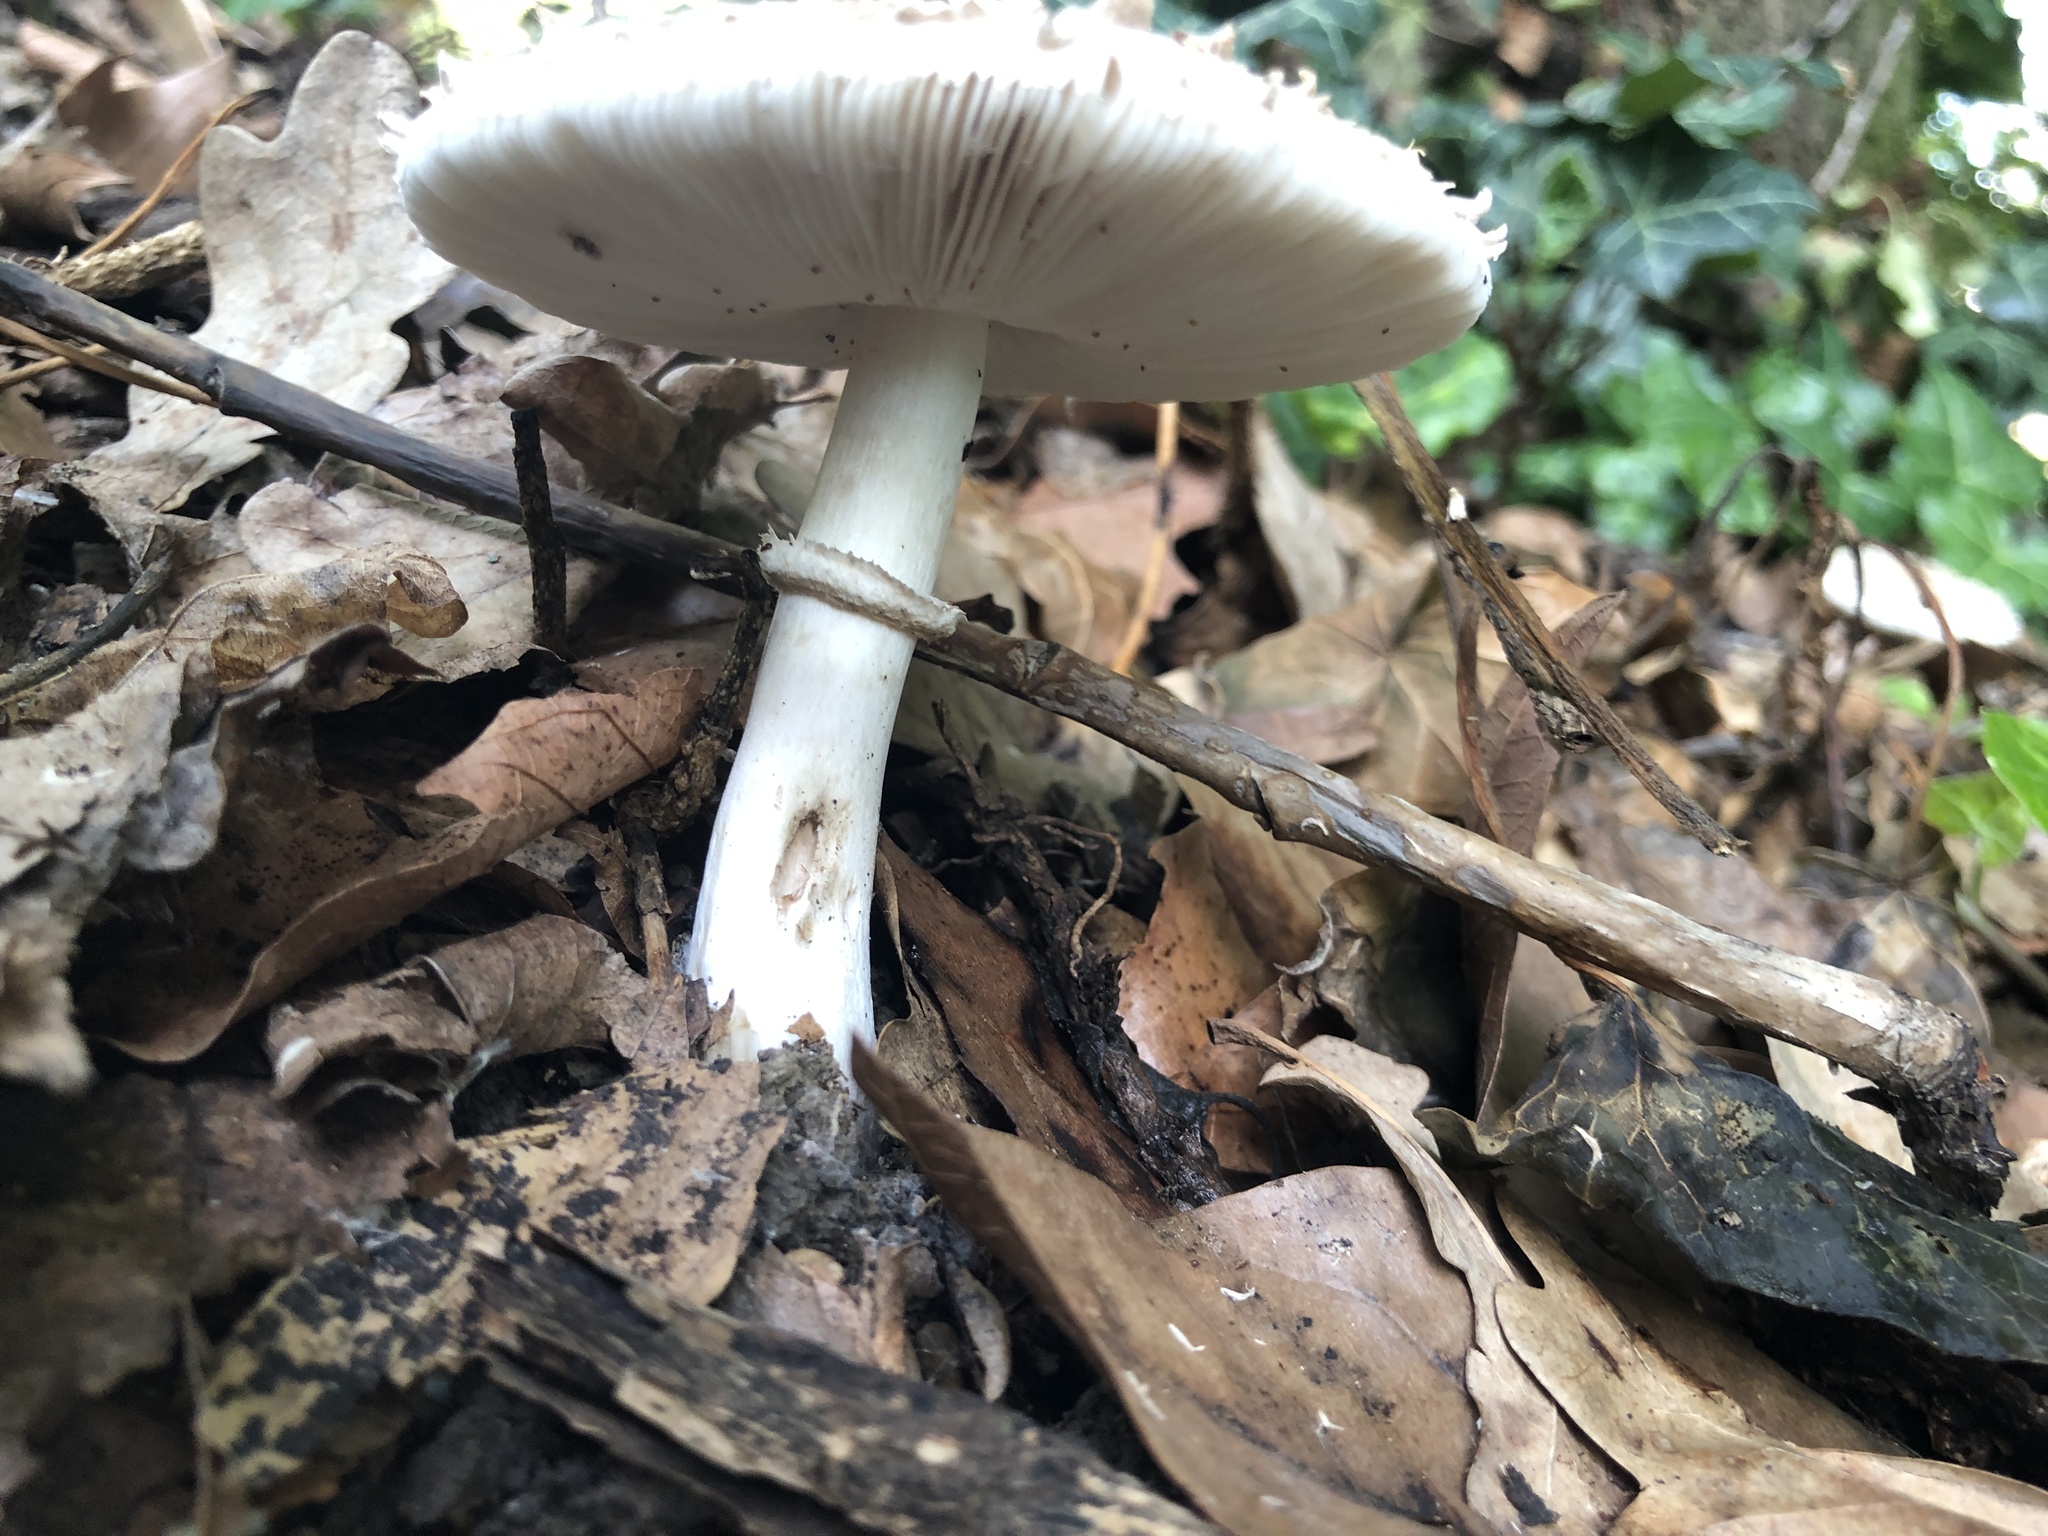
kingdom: Fungi
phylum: Basidiomycota
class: Agaricomycetes
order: Agaricales
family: Agaricaceae
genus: Leucoagaricus
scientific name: Leucoagaricus barssii
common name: Smoky dapperling
